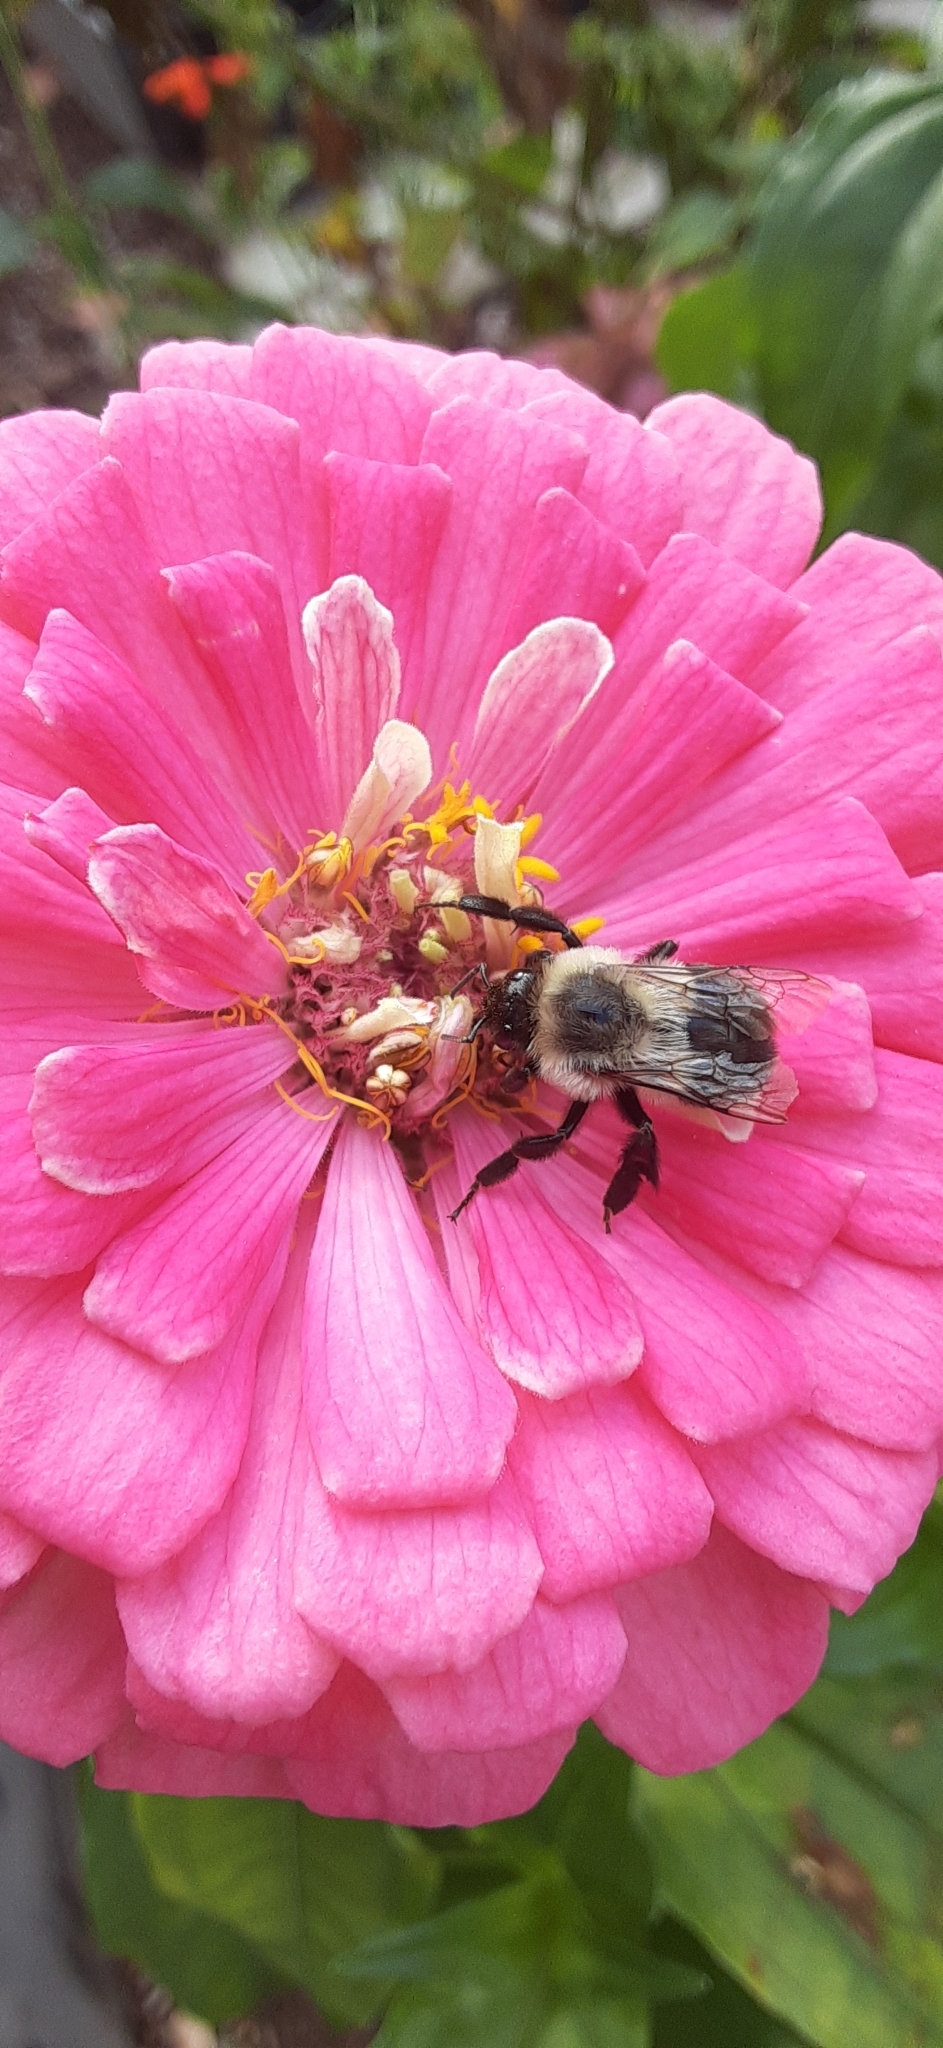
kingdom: Animalia
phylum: Arthropoda
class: Insecta
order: Hymenoptera
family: Apidae
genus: Bombus
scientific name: Bombus impatiens
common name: Common eastern bumble bee
